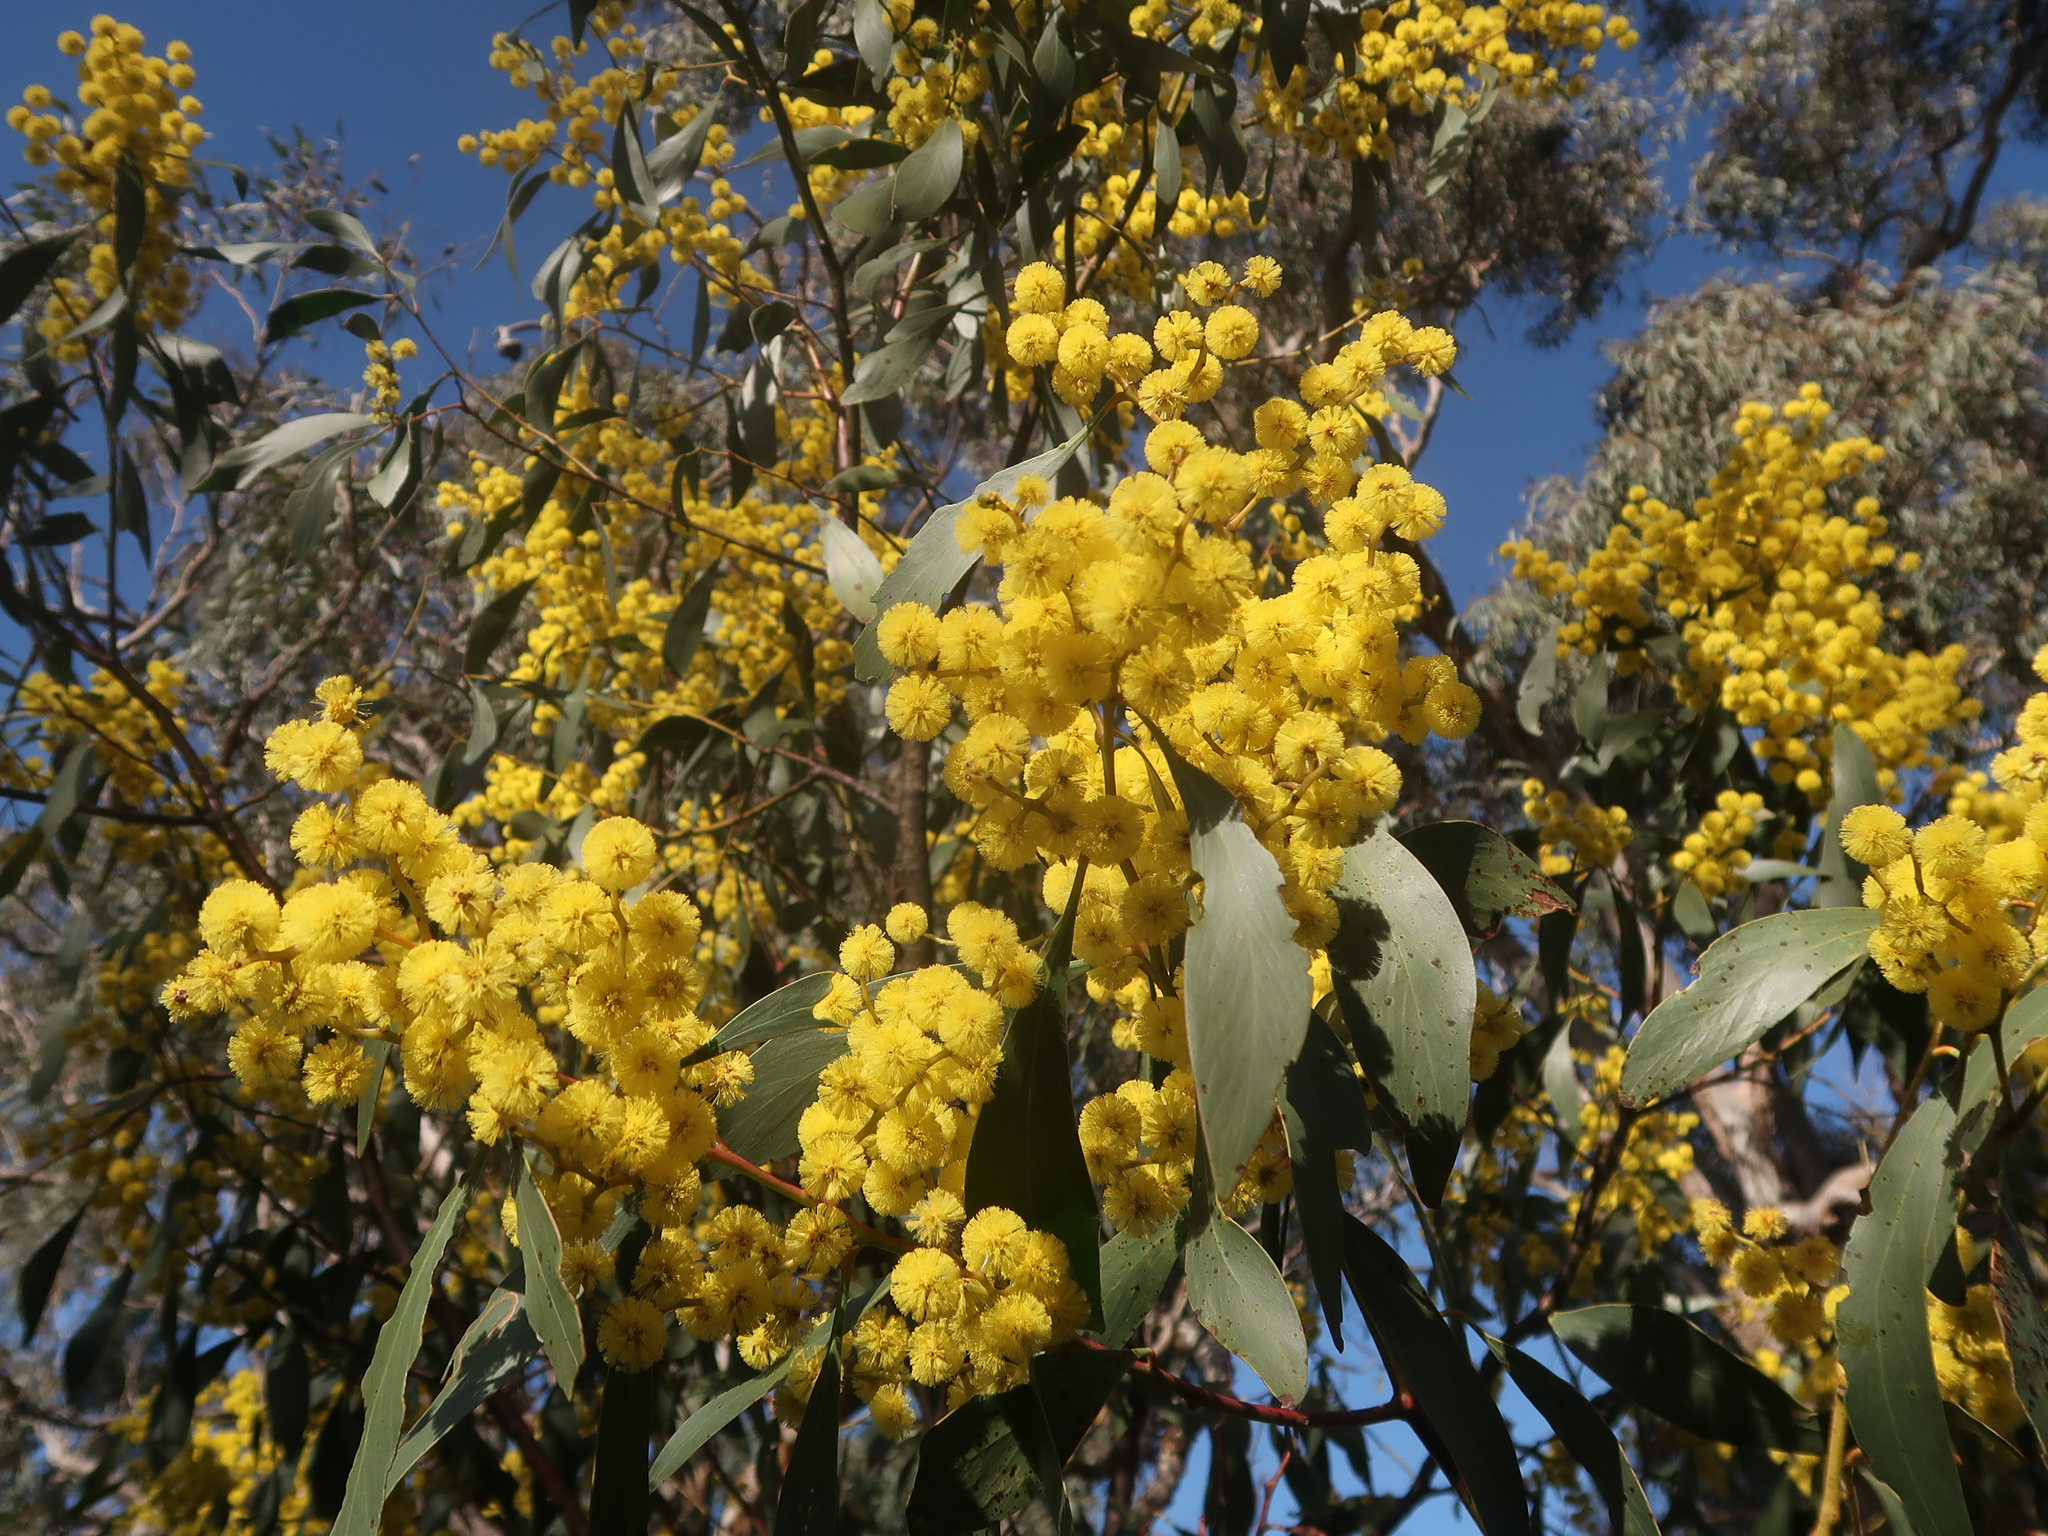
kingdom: Plantae
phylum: Tracheophyta
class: Magnoliopsida
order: Fabales
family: Fabaceae
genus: Acacia
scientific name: Acacia pycnantha
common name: Golden wattle
